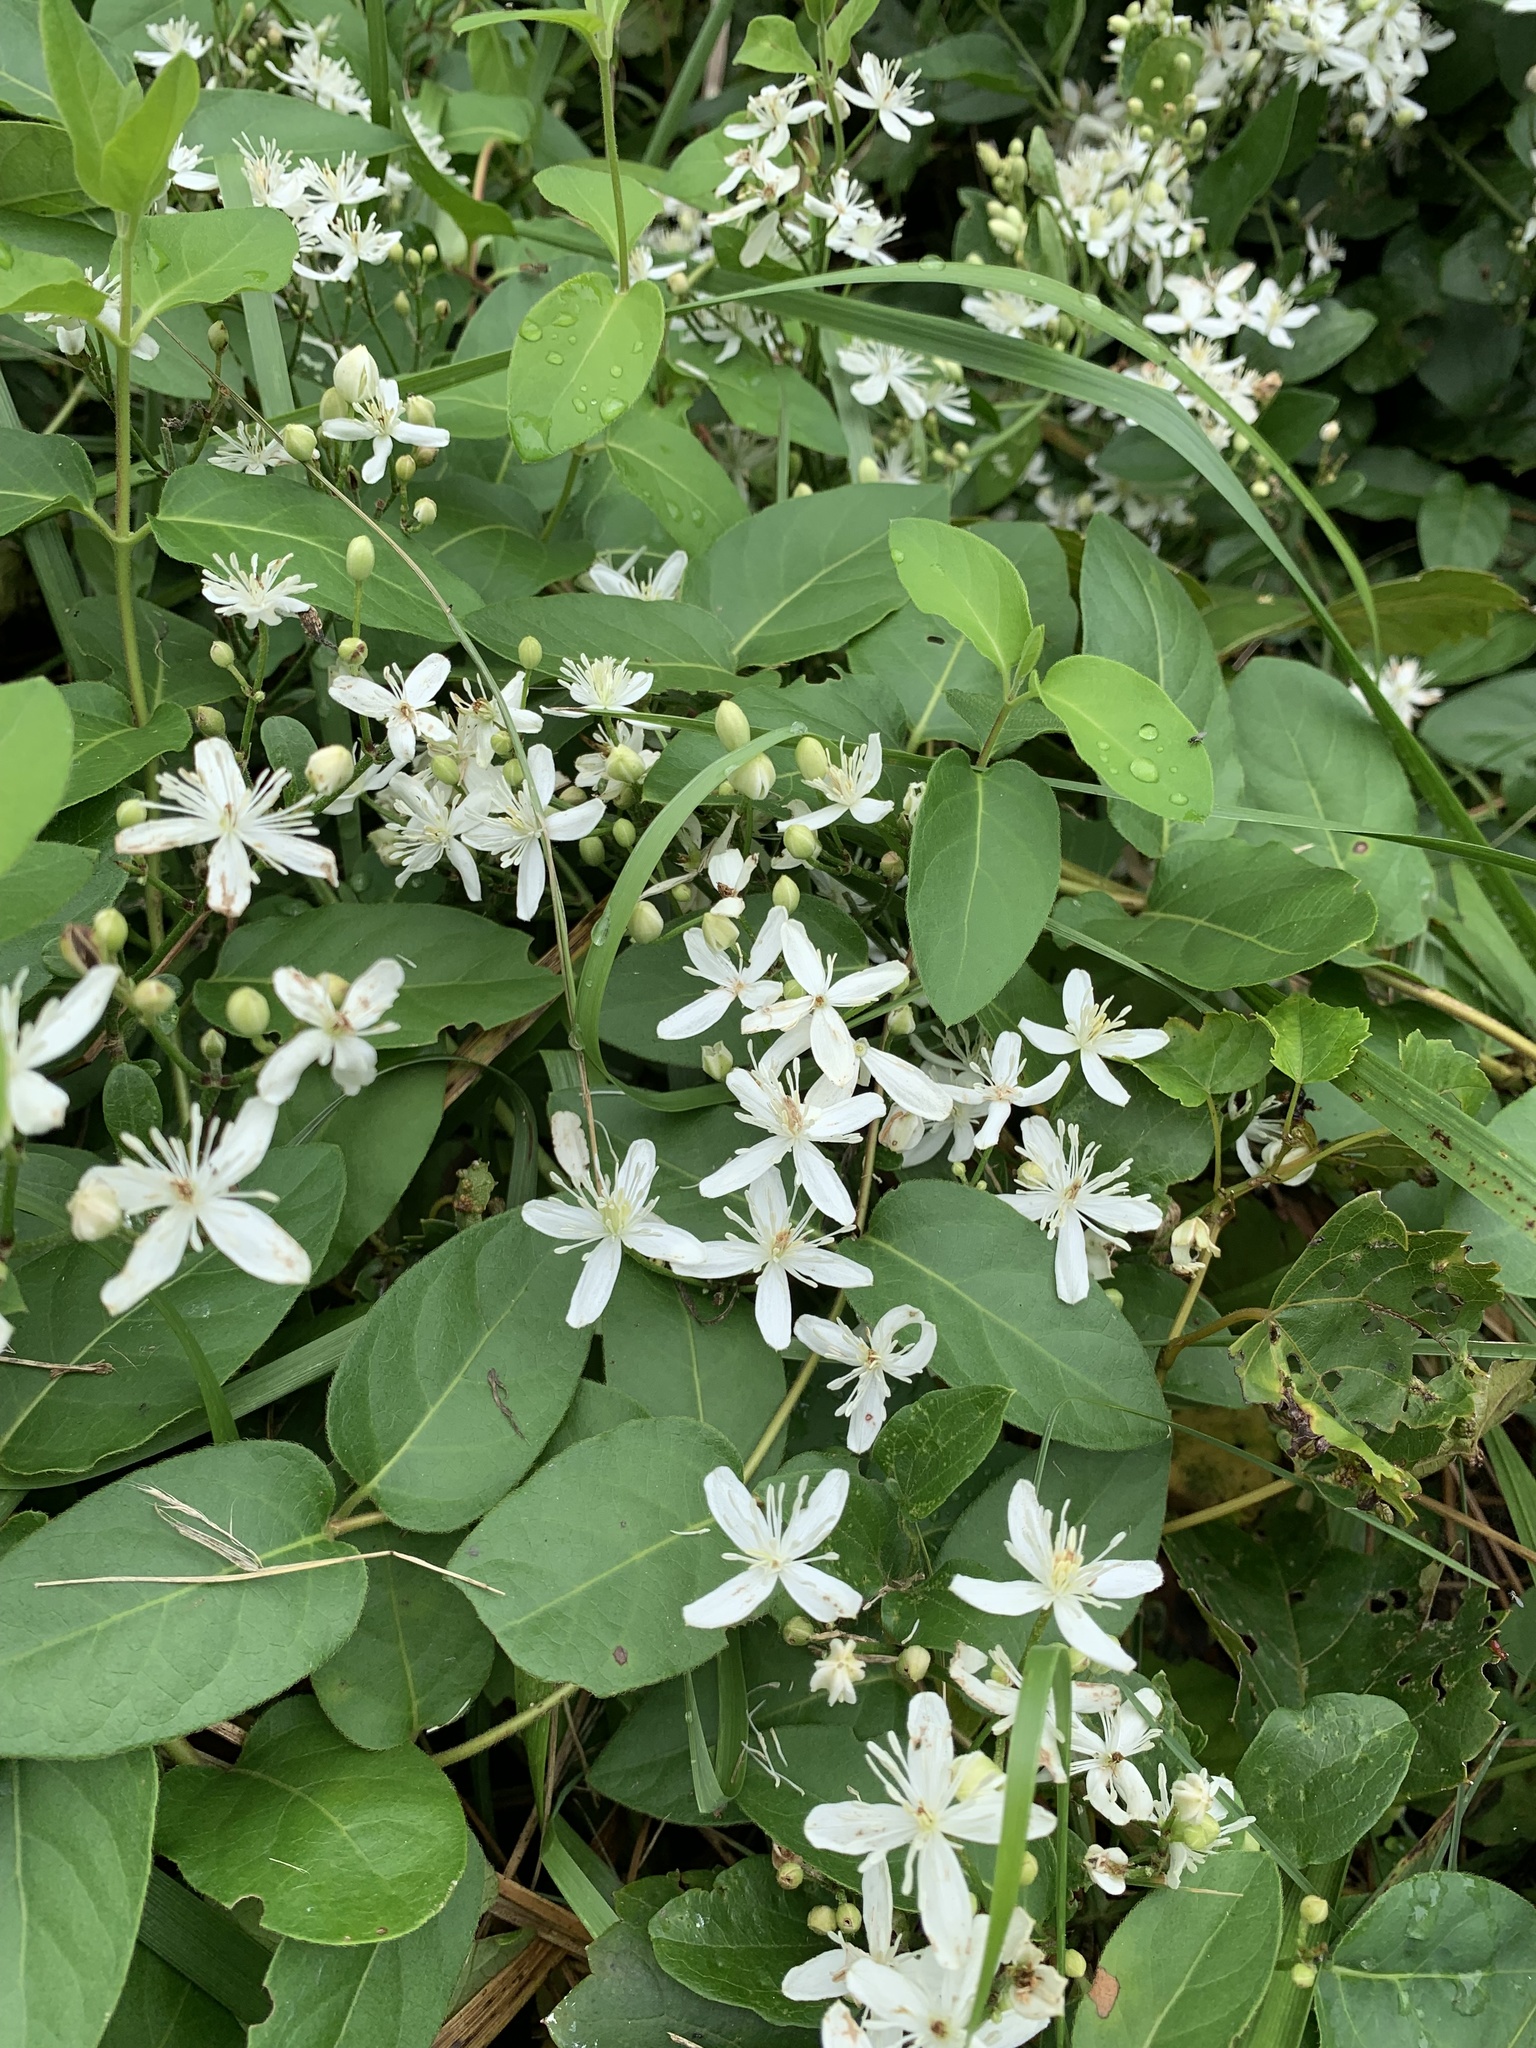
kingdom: Plantae
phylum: Tracheophyta
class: Magnoliopsida
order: Ranunculales
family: Ranunculaceae
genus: Clematis
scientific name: Clematis terniflora
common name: Sweet autumn clematis
